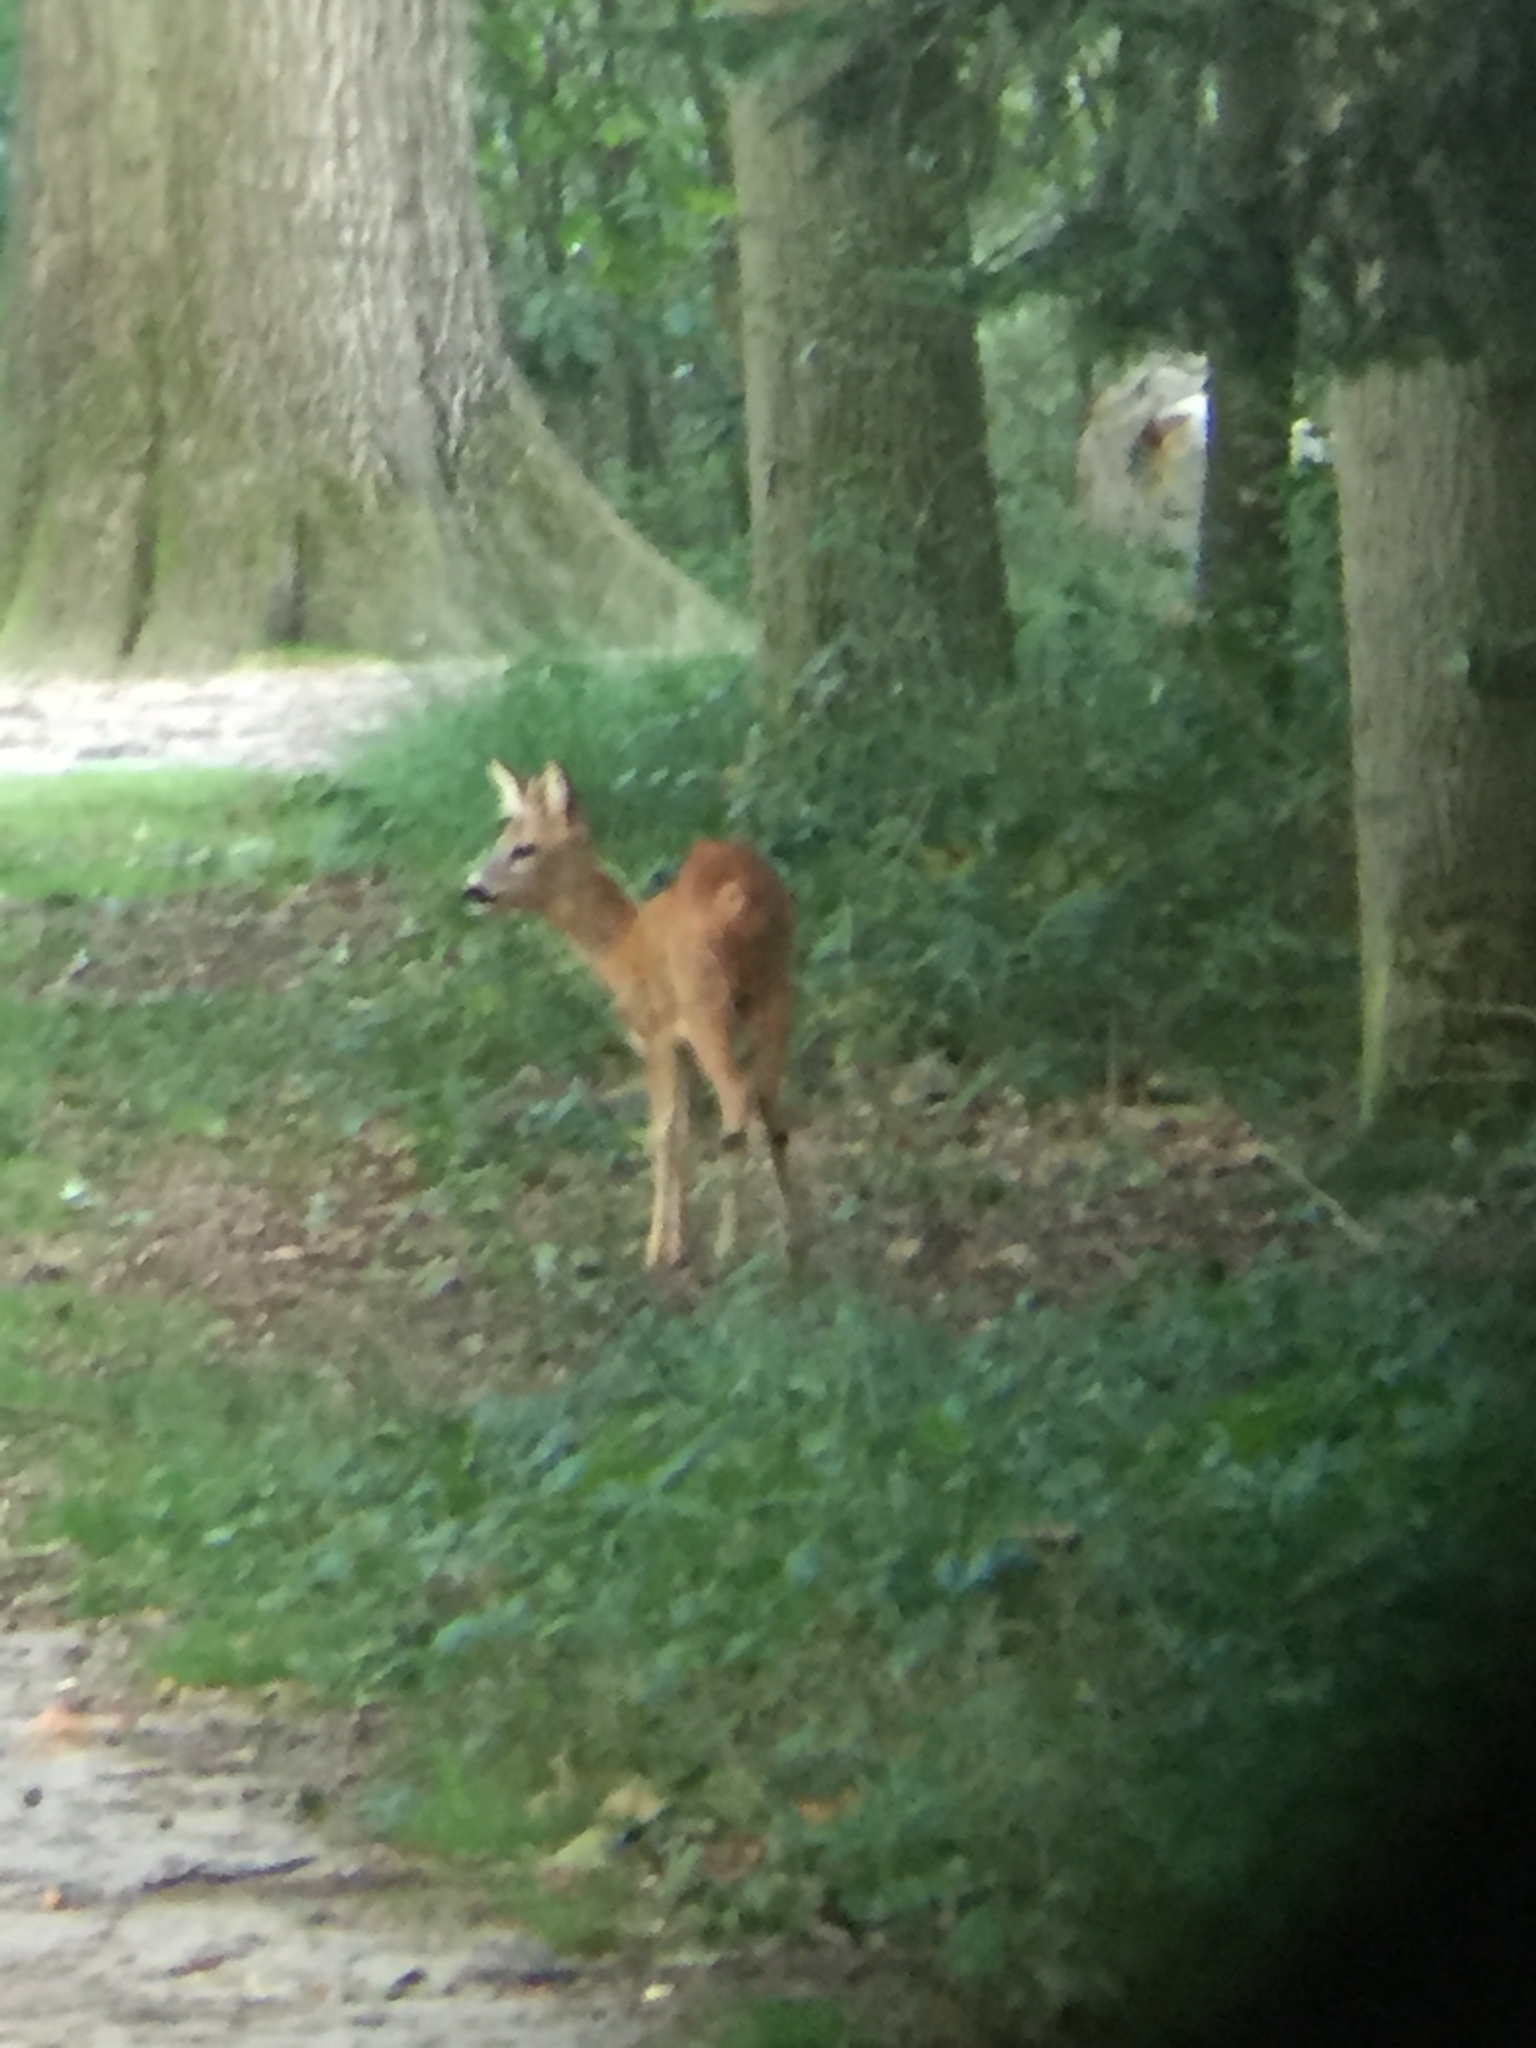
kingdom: Animalia
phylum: Chordata
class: Mammalia
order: Artiodactyla
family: Cervidae
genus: Capreolus
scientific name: Capreolus capreolus
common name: Western roe deer
